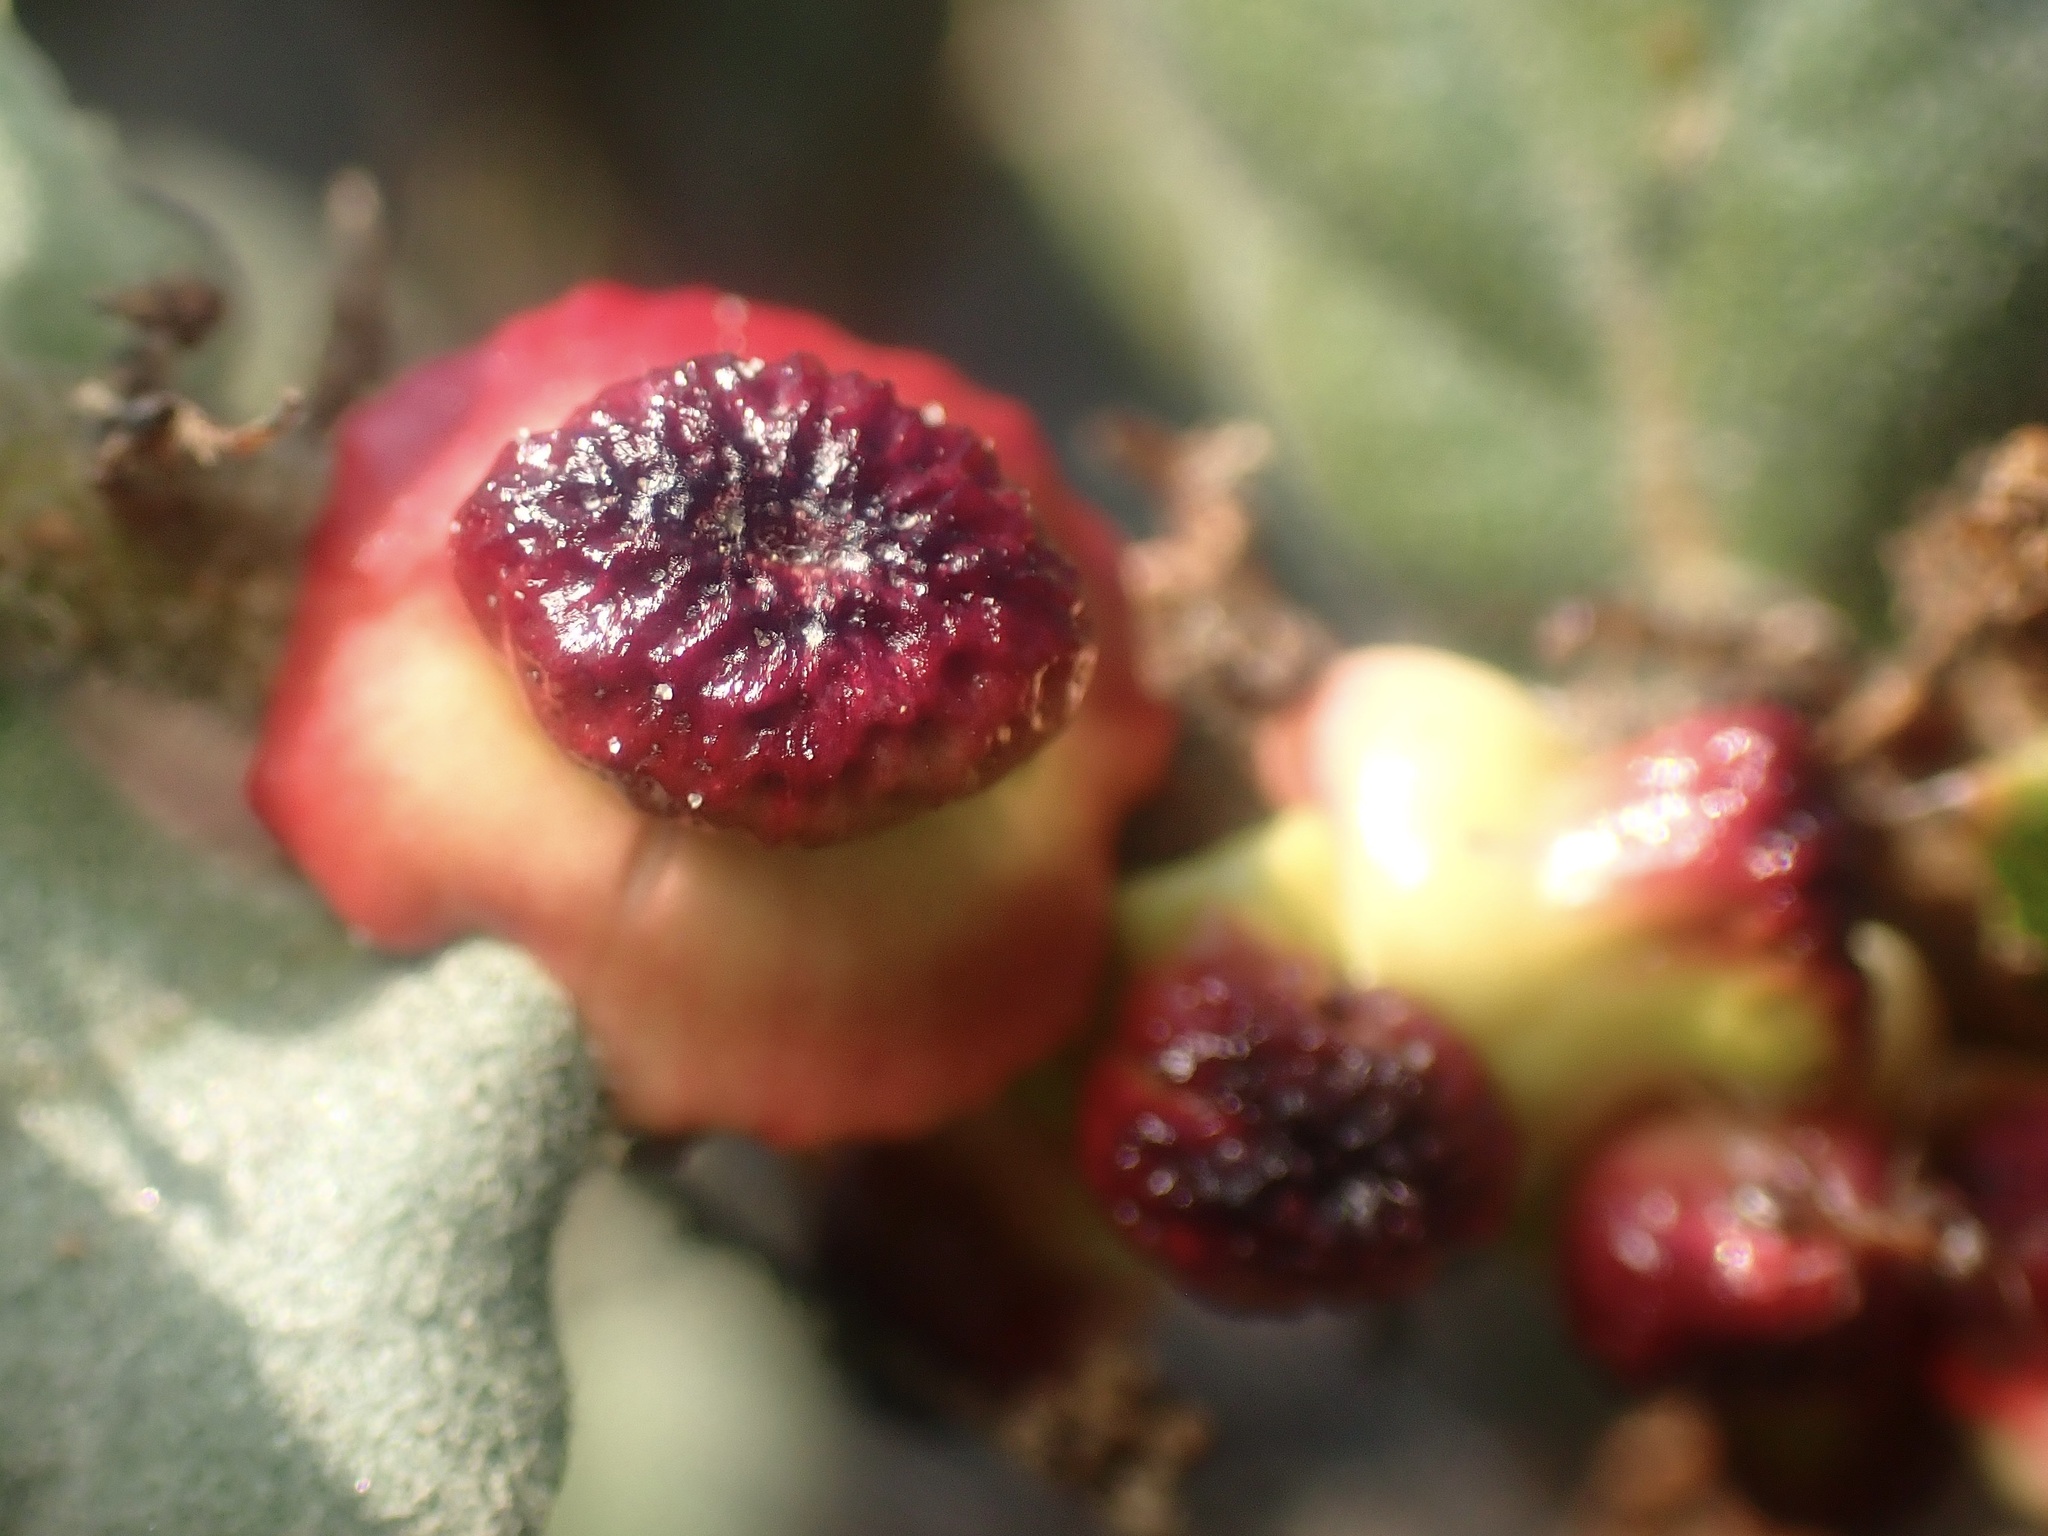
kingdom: Animalia
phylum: Arthropoda
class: Insecta
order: Hymenoptera
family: Cynipidae
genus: Disholcaspis
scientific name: Disholcaspis prehensa
